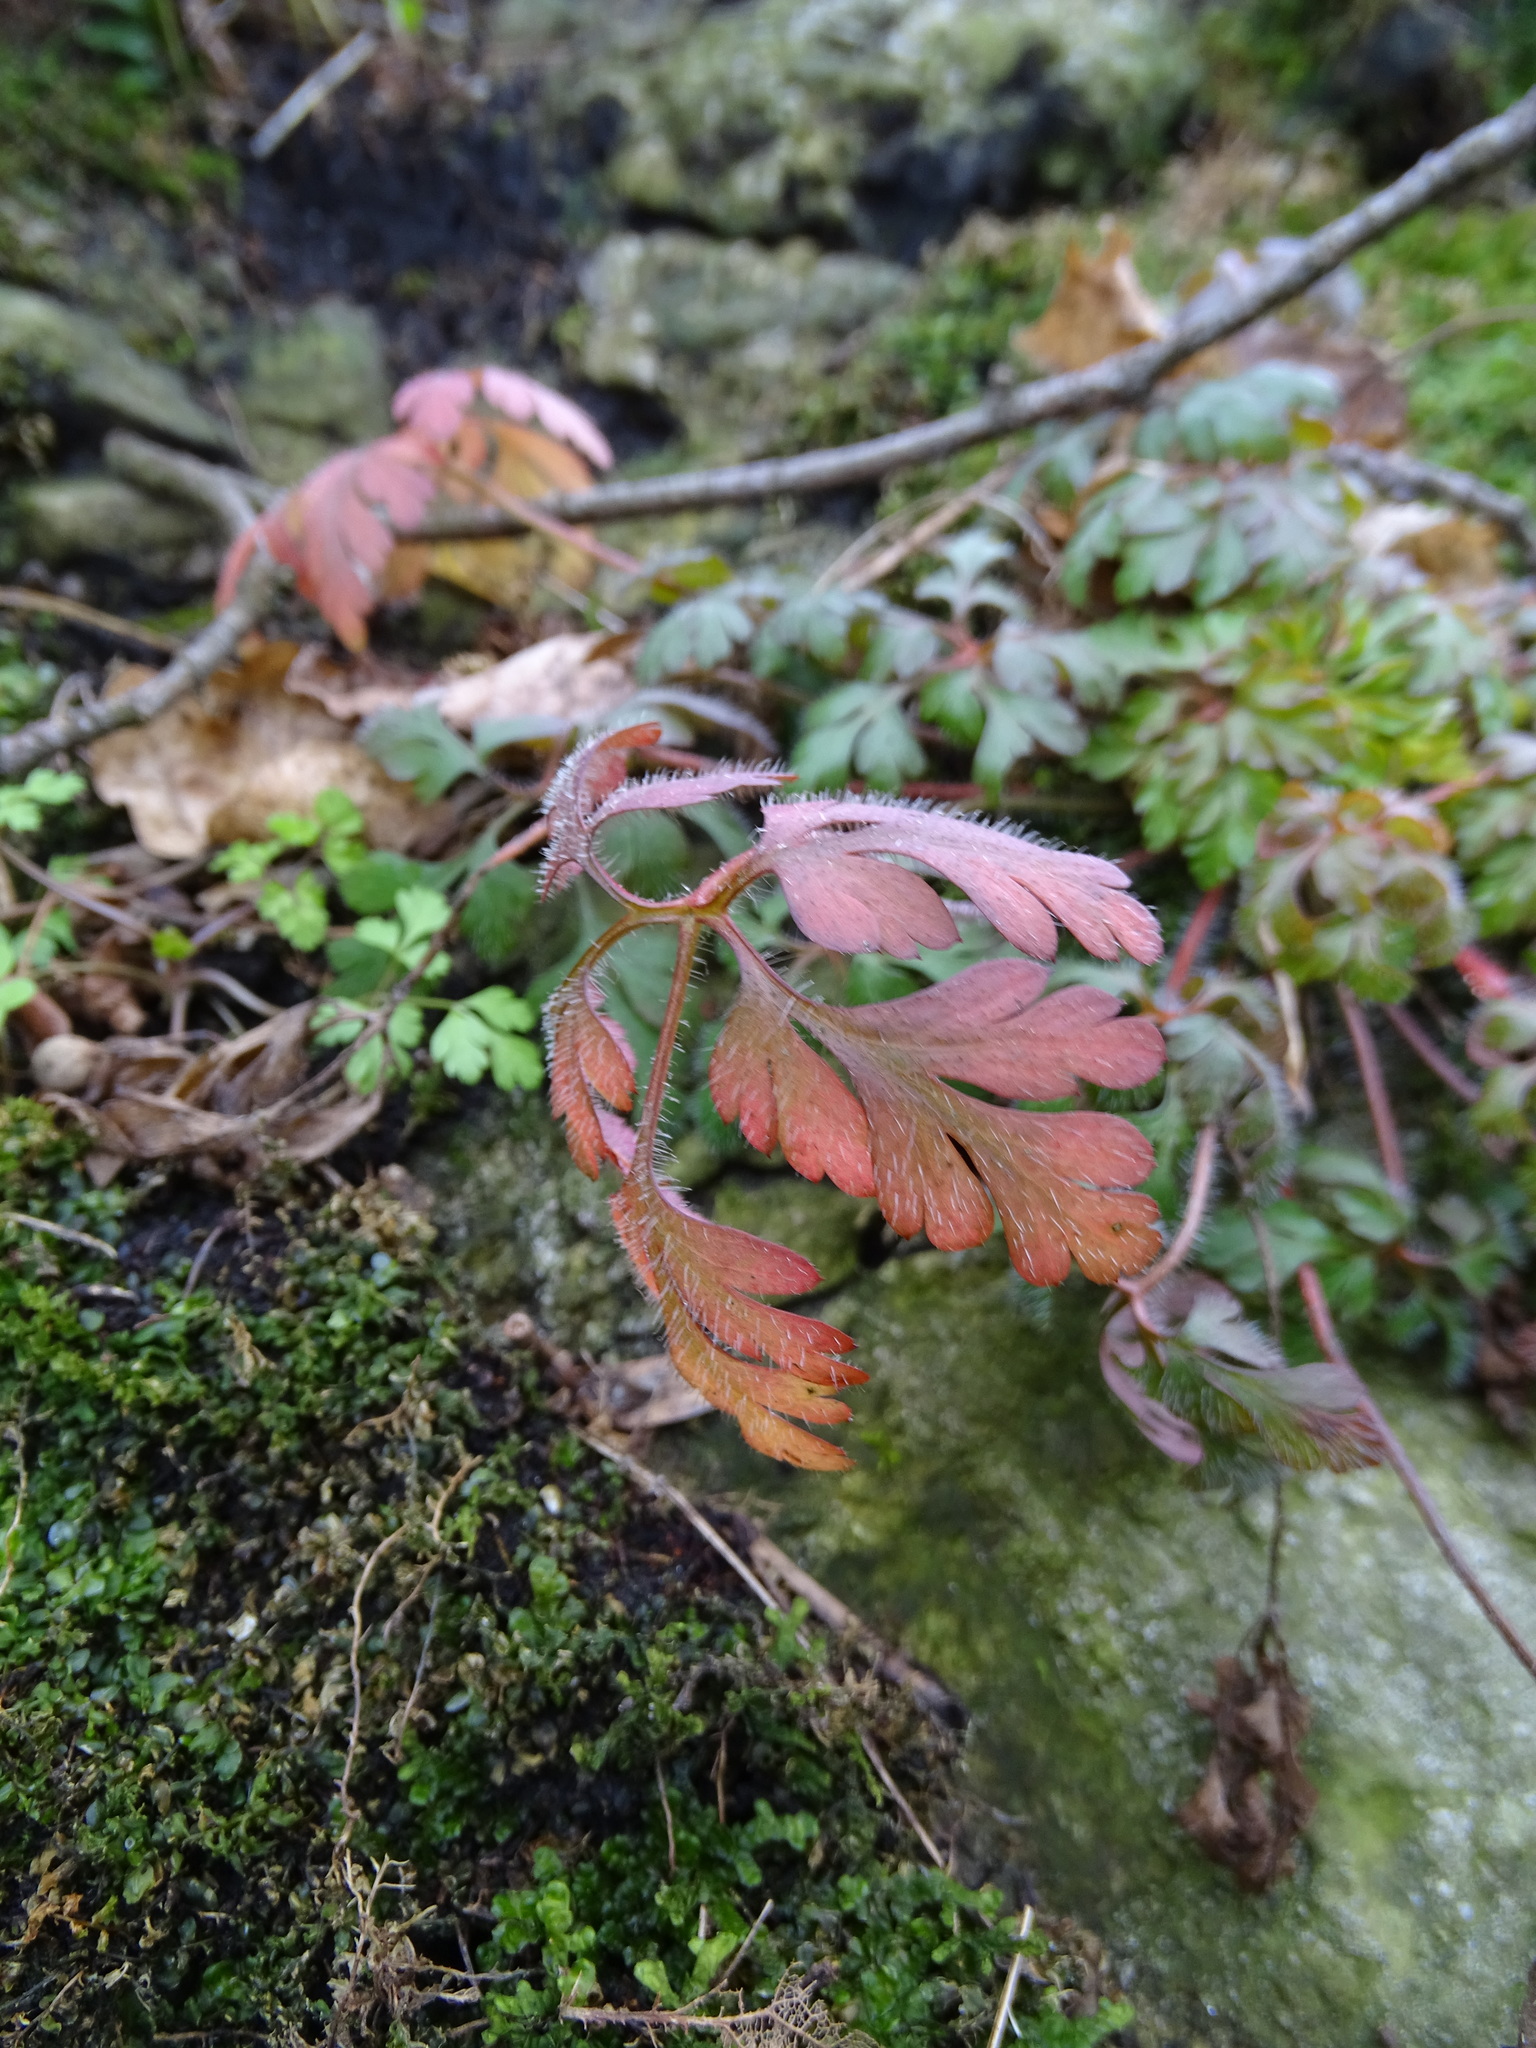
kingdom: Plantae
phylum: Tracheophyta
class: Magnoliopsida
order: Geraniales
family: Geraniaceae
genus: Geranium
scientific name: Geranium robertianum
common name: Herb-robert
